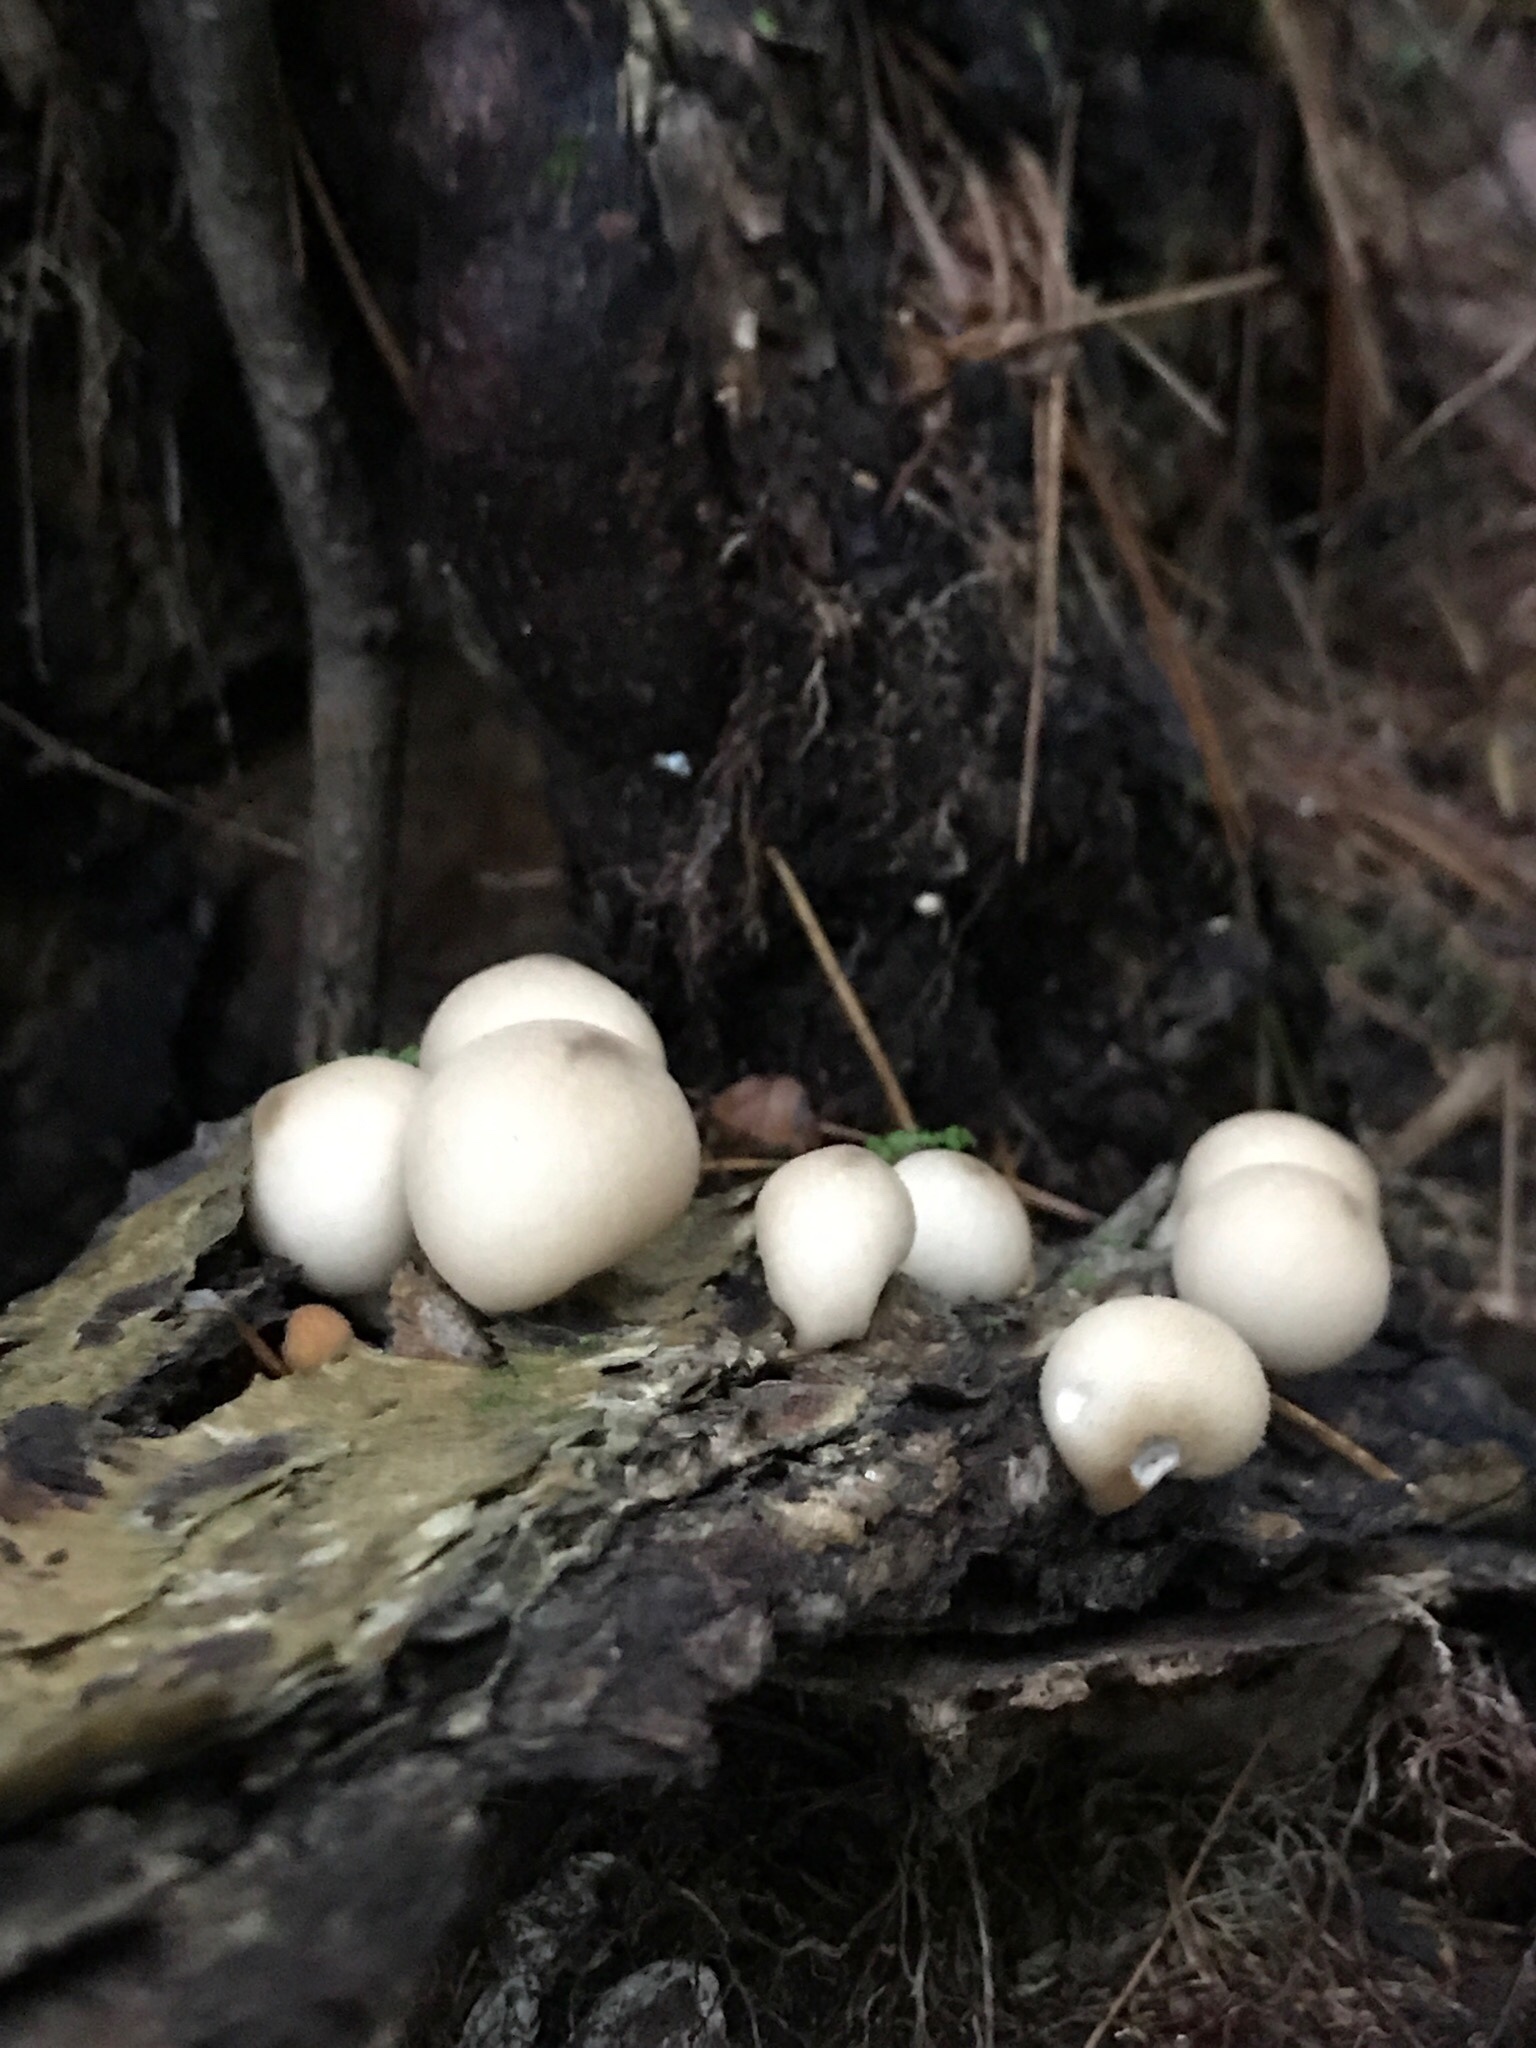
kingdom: Fungi
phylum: Basidiomycota
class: Agaricomycetes
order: Agaricales
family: Lycoperdaceae
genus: Apioperdon
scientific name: Apioperdon pyriforme
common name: Pear-shaped puffball
